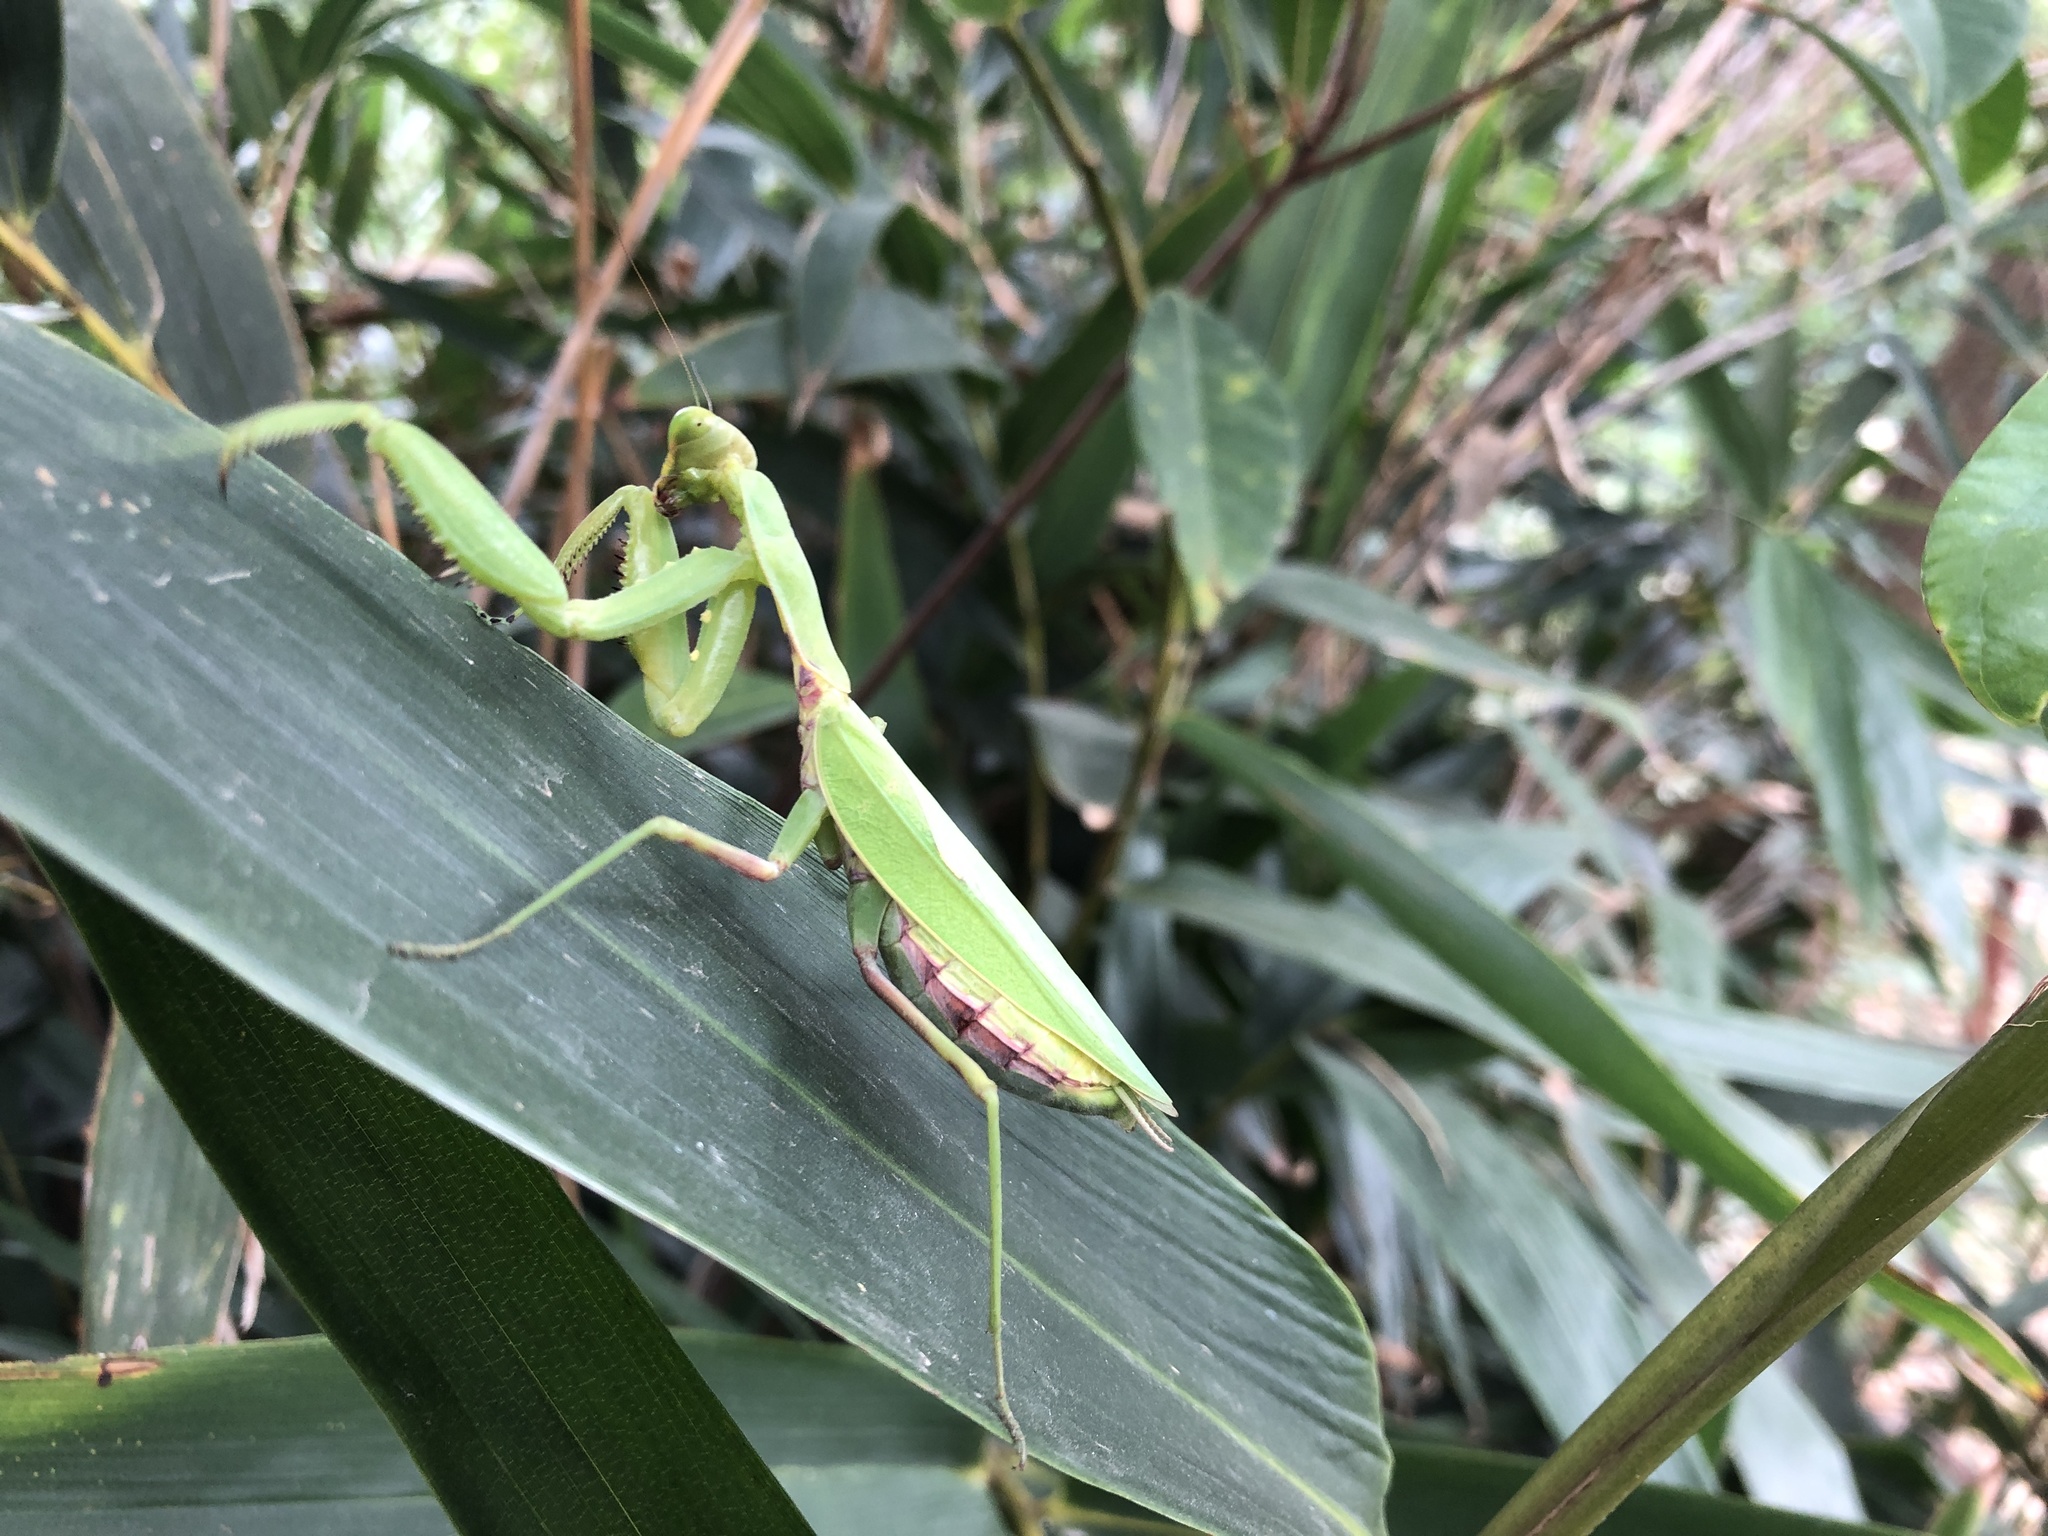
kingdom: Animalia
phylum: Arthropoda
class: Insecta
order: Mantodea
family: Mantidae
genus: Hierodula
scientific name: Hierodula patellifera
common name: Asian mantis
